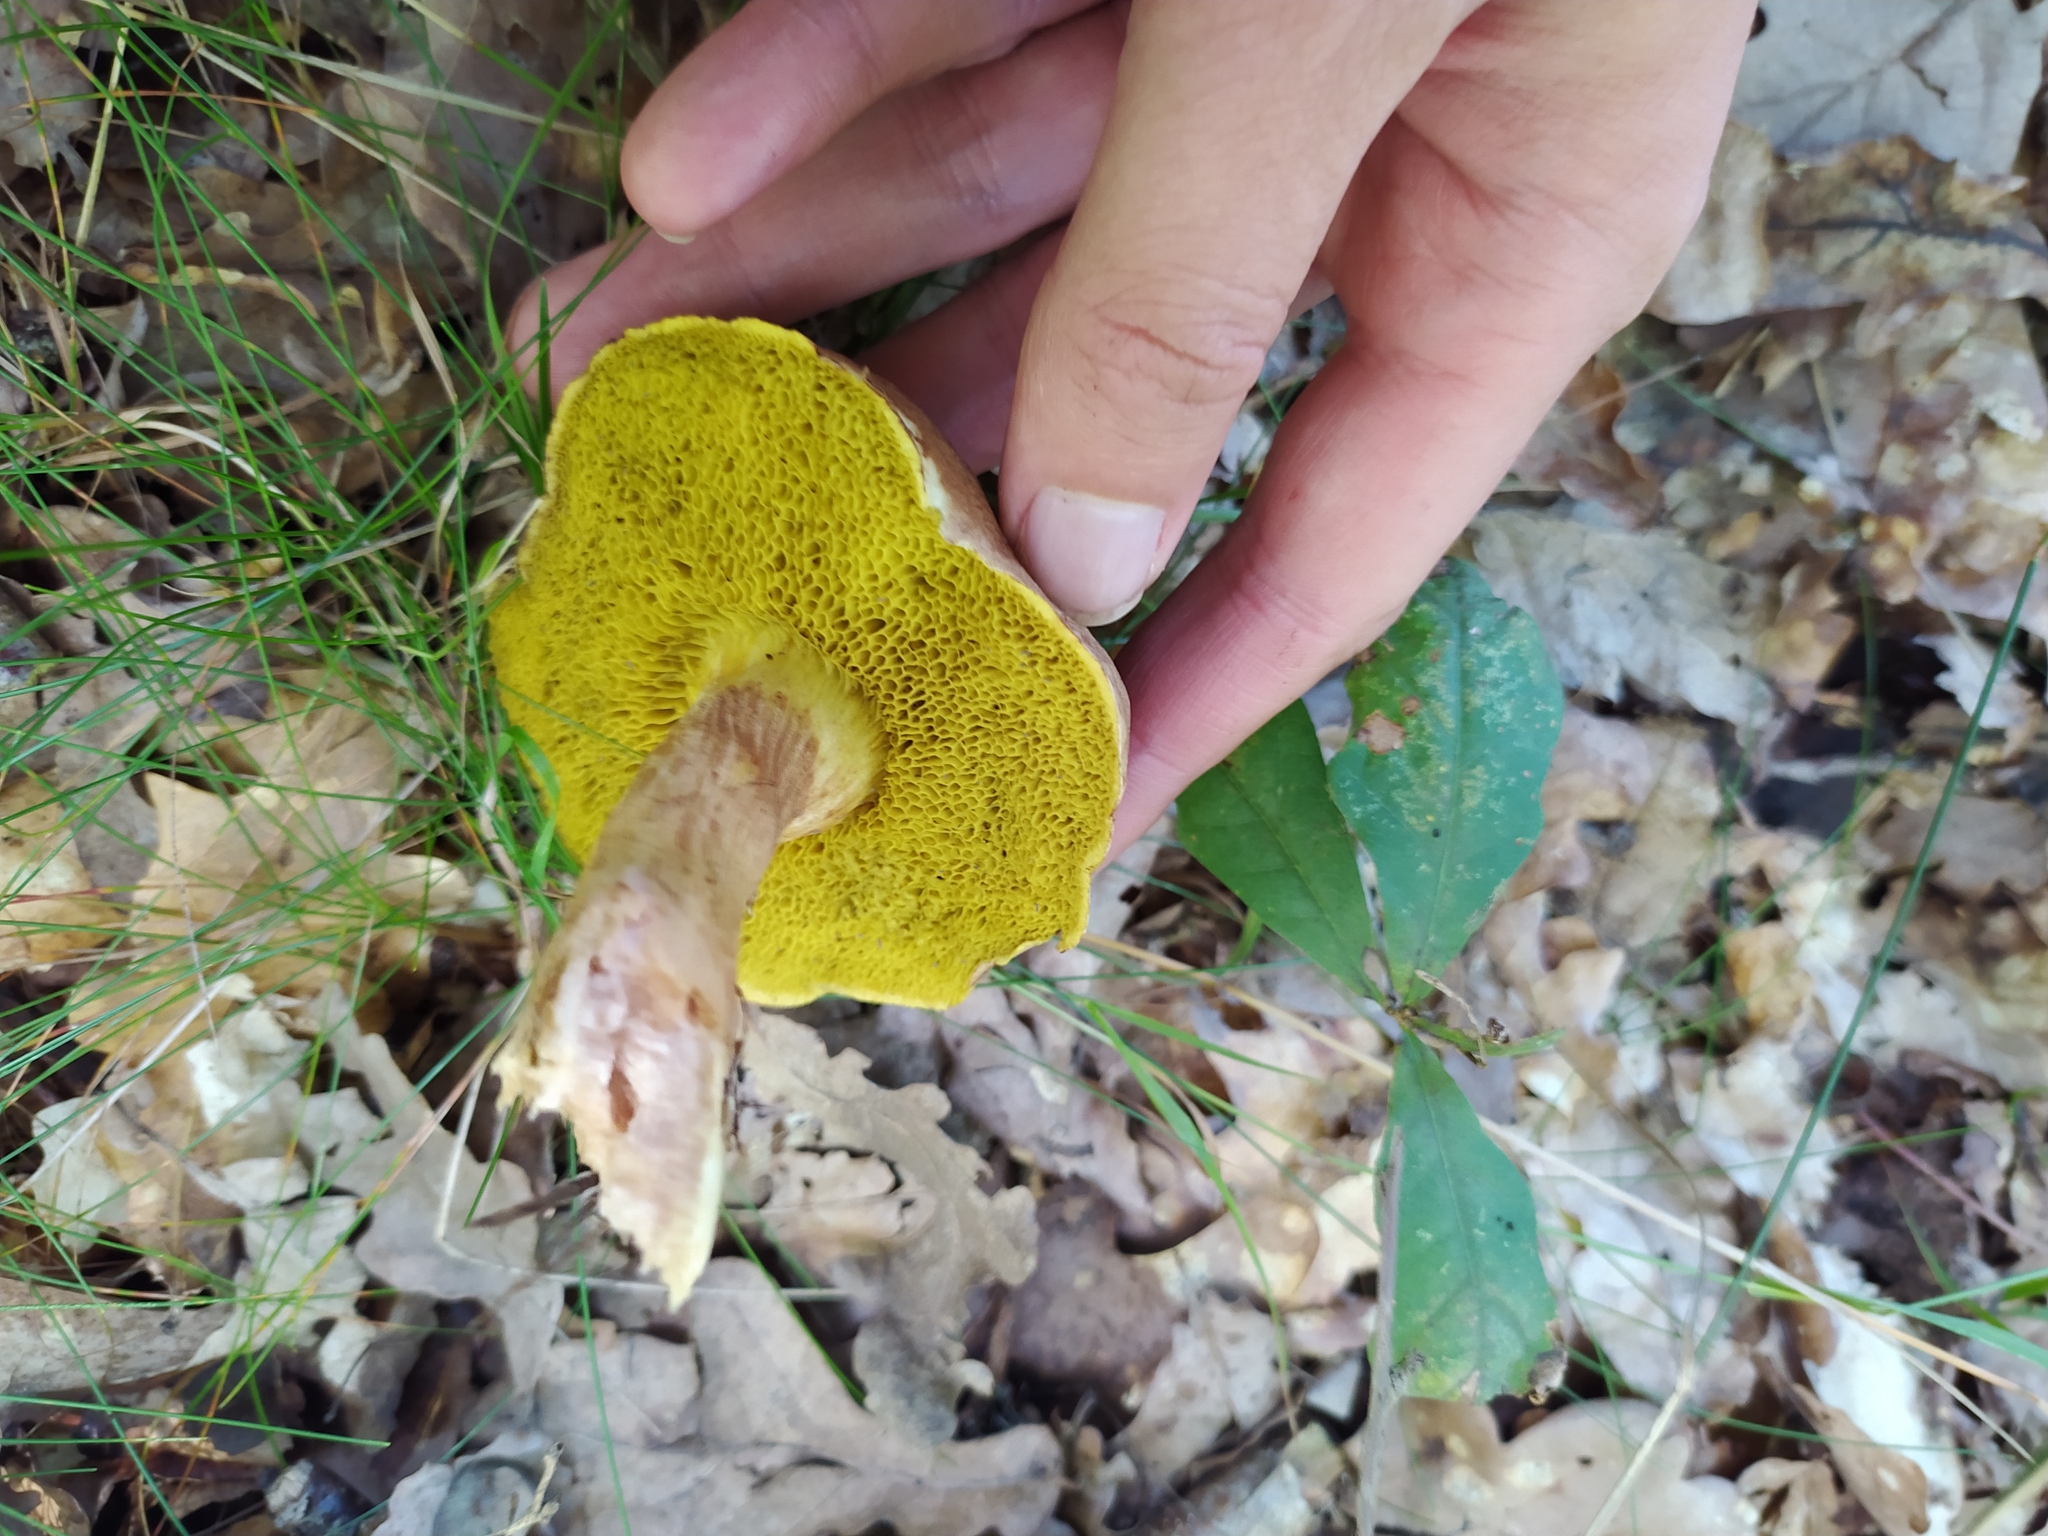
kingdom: Fungi
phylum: Basidiomycota
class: Agaricomycetes
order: Boletales
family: Boletaceae
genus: Xerocomus
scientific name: Xerocomus subtomentosus
